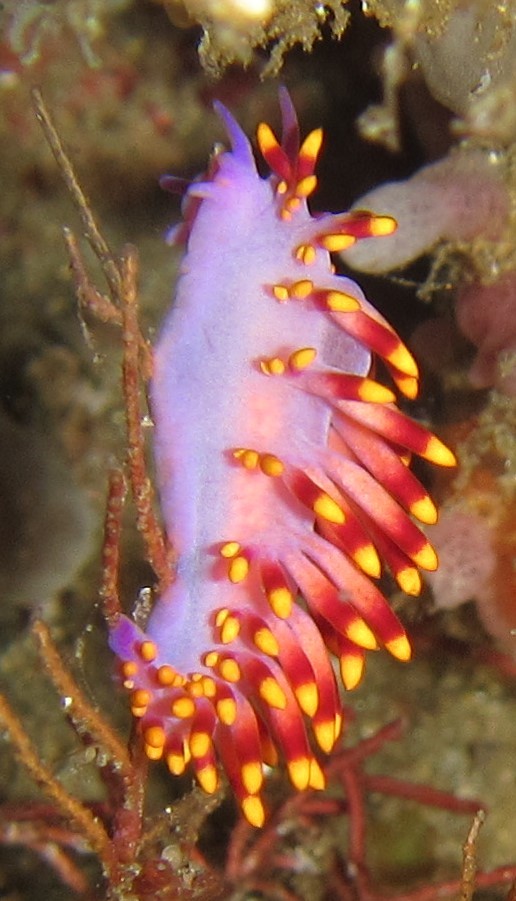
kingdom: Animalia
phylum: Mollusca
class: Gastropoda
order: Nudibranchia
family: Trinchesiidae
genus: Trinchesia
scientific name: Trinchesia sibogae
